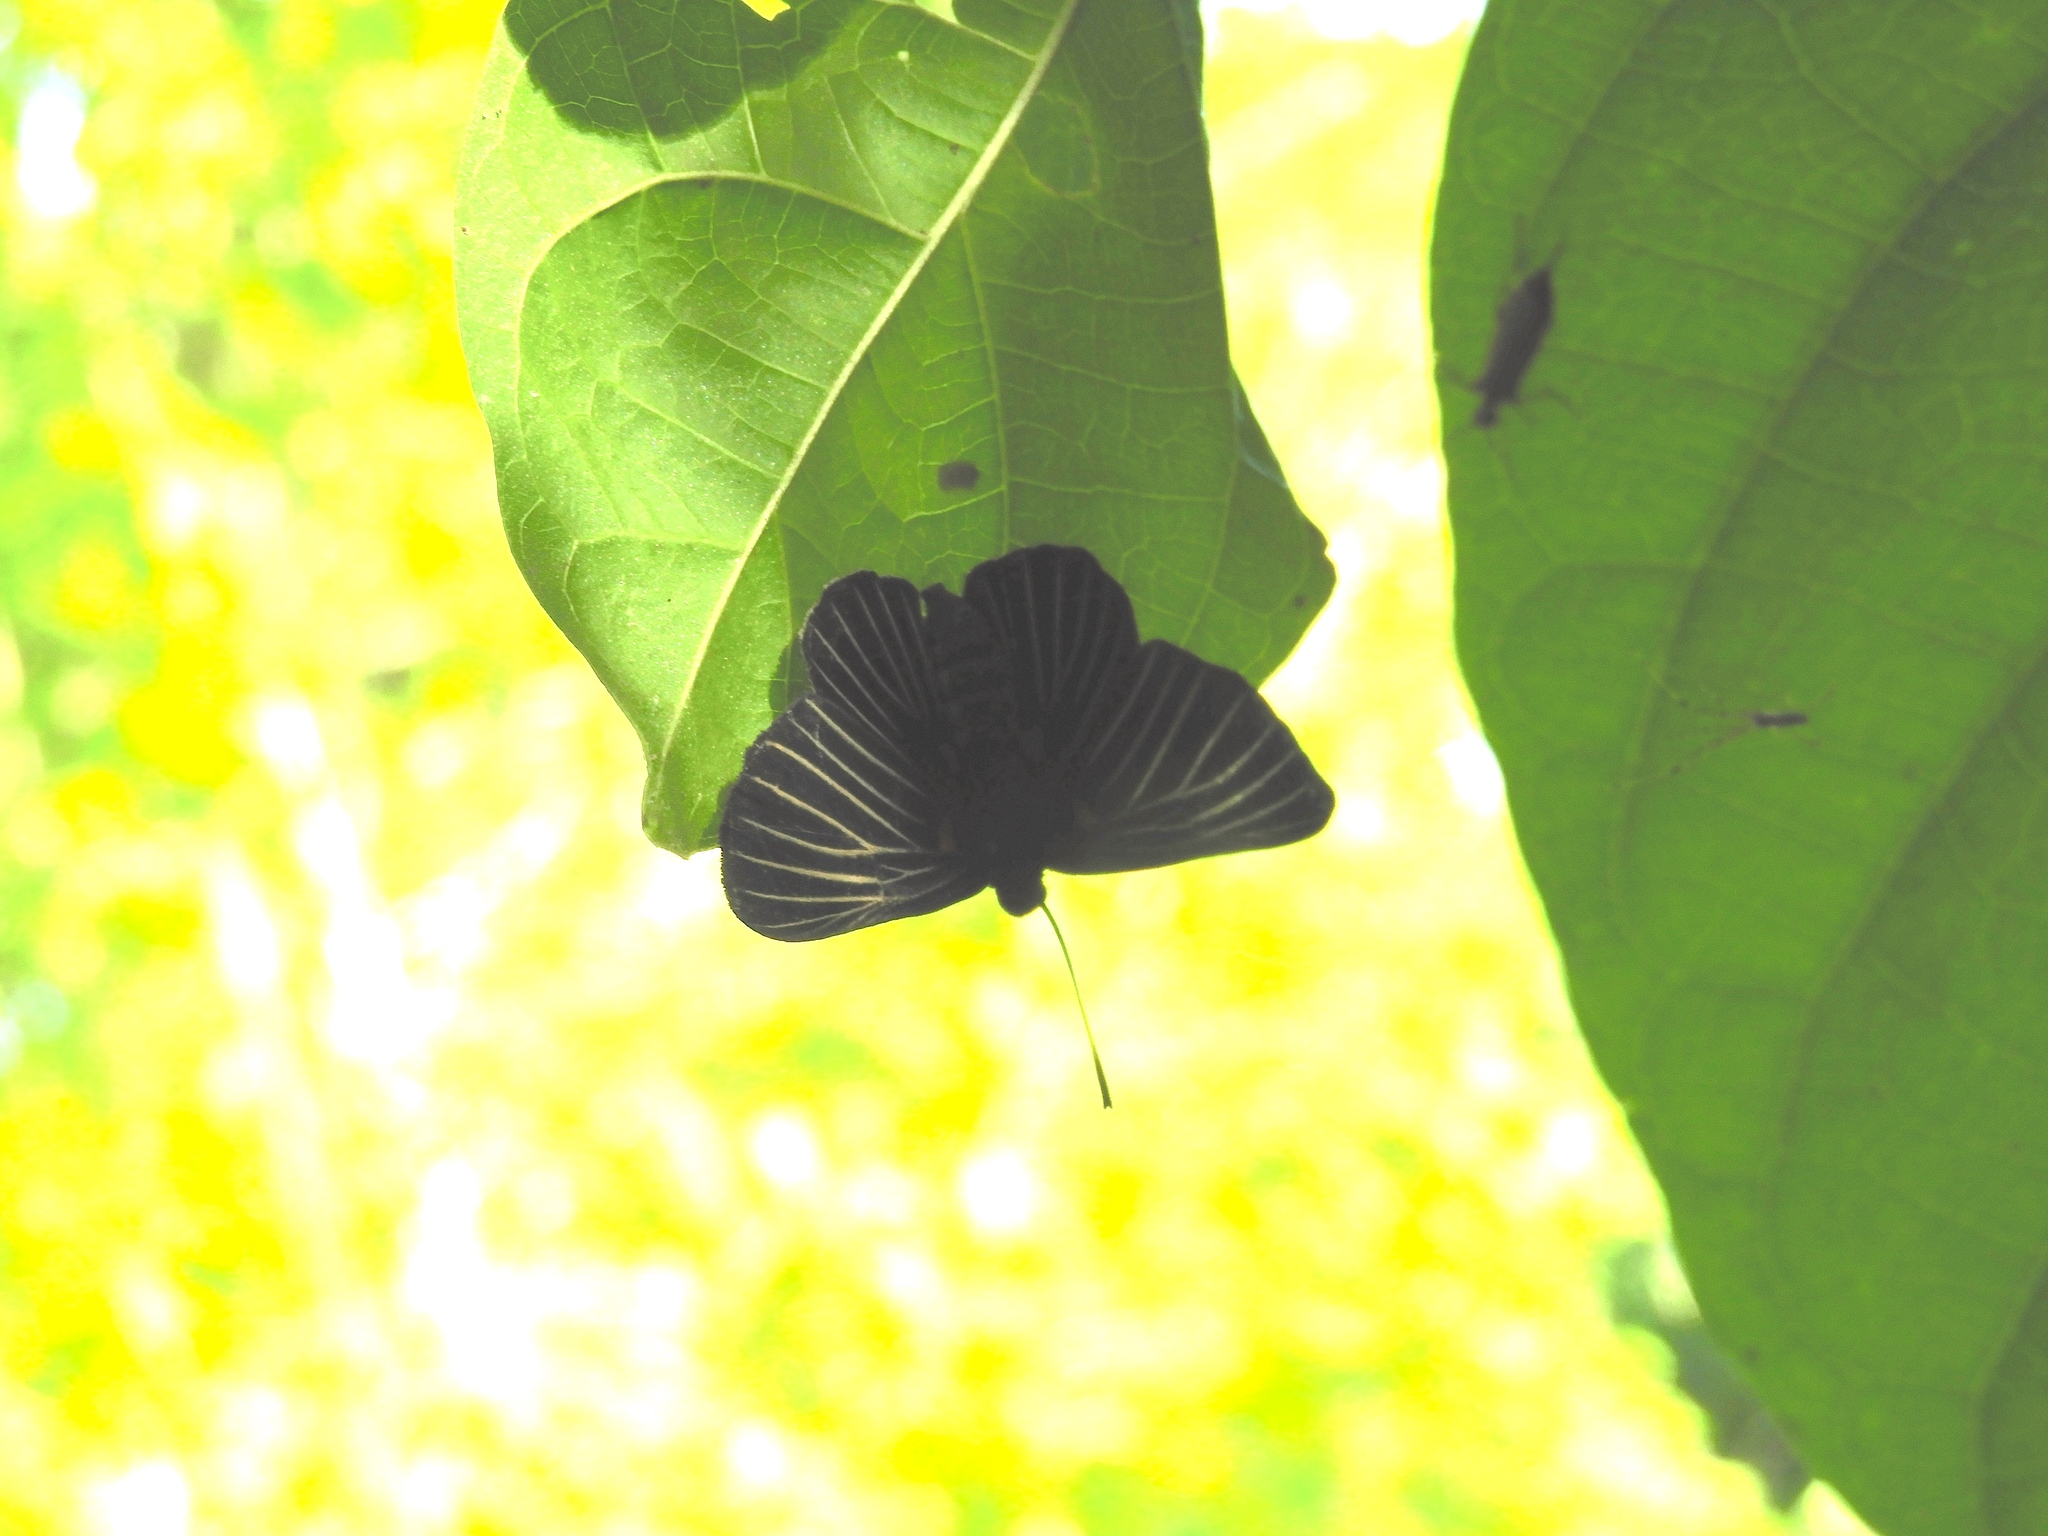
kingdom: Animalia
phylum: Arthropoda
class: Insecta
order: Lepidoptera
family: Lycaenidae
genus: Melanis
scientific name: Melanis
